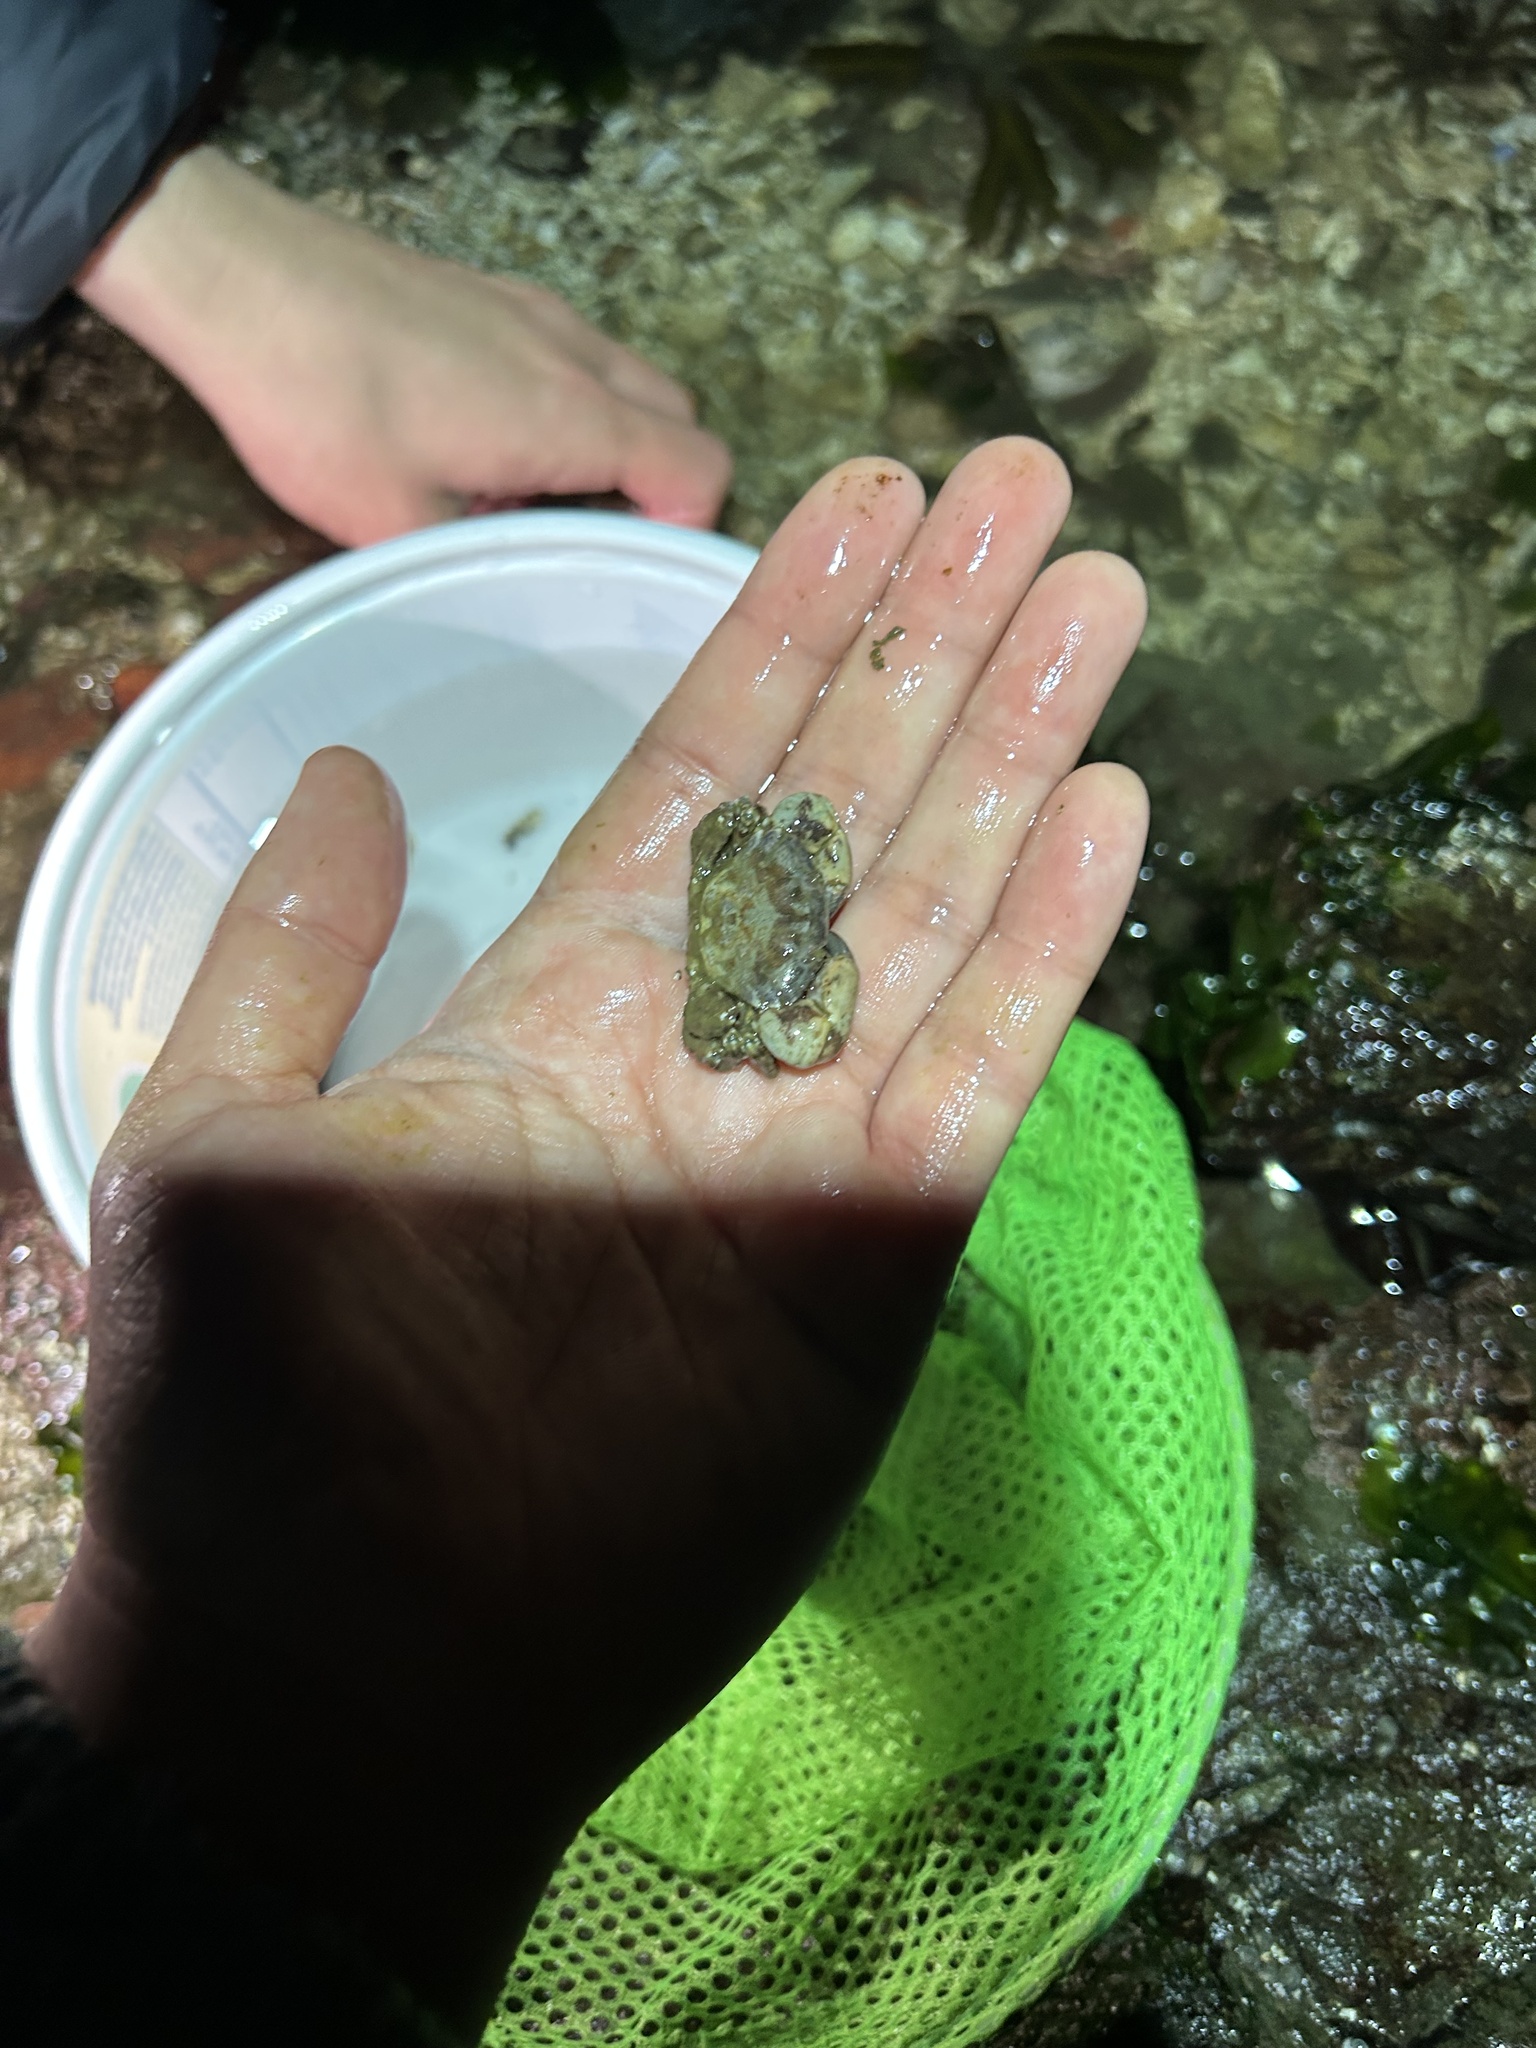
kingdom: Animalia
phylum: Arthropoda
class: Malacostraca
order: Decapoda
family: Panopeidae
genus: Lophopanopeus
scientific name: Lophopanopeus bellus
